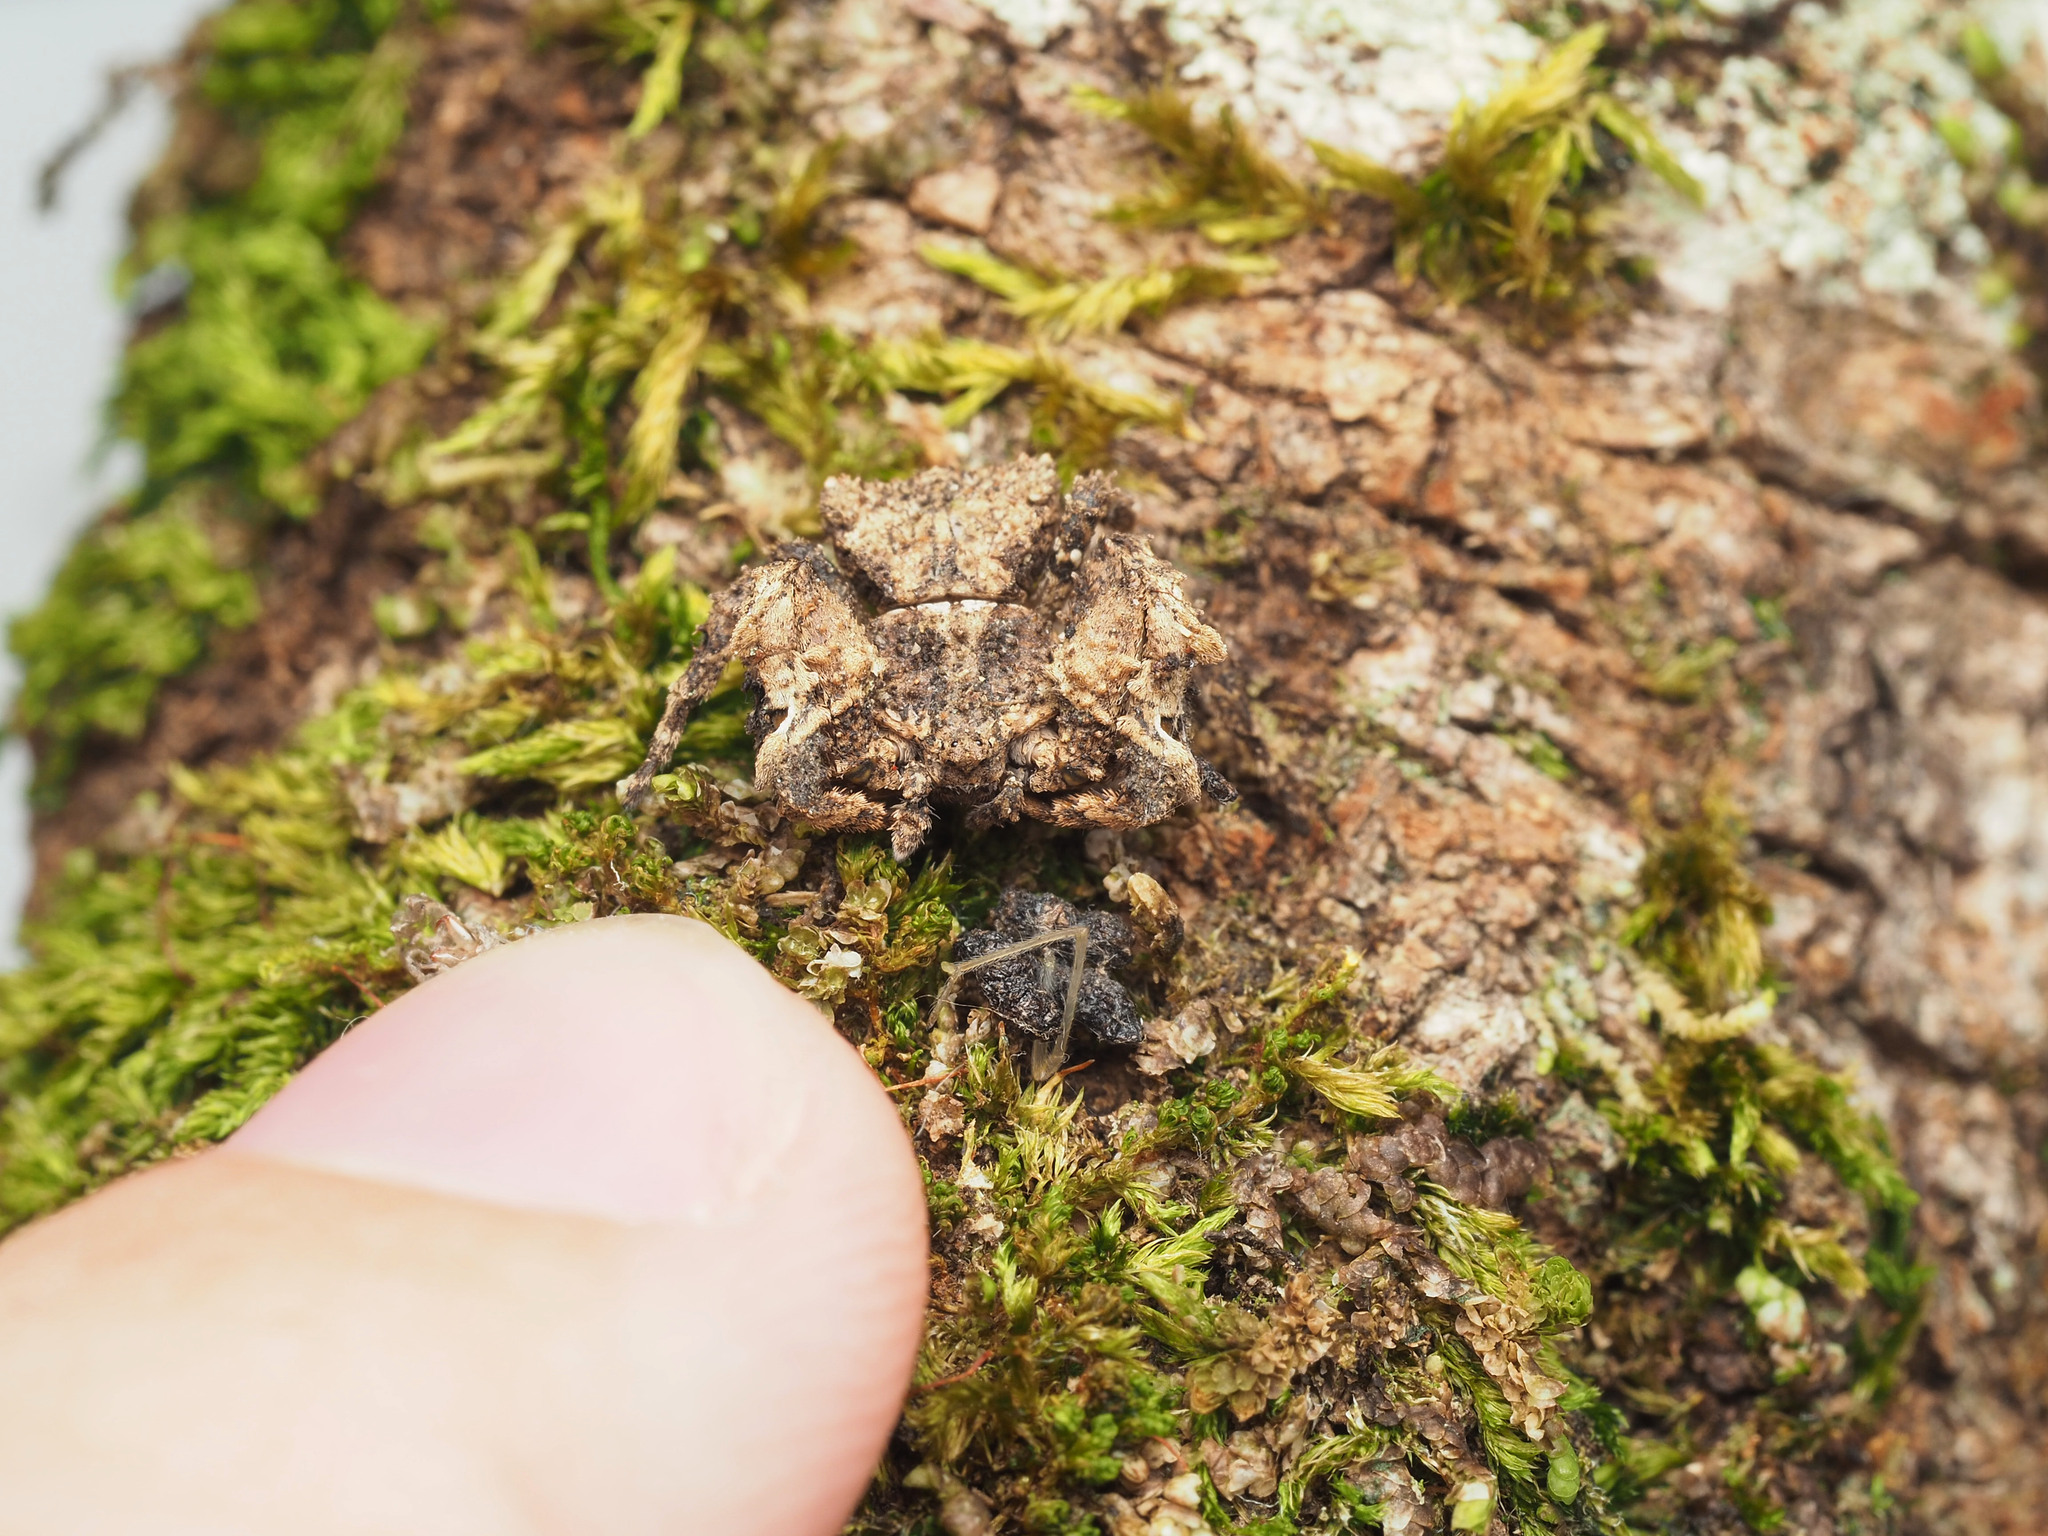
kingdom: Animalia
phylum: Arthropoda
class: Arachnida
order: Araneae
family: Thomisidae
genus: Stephanopis
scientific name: Stephanopis armata
